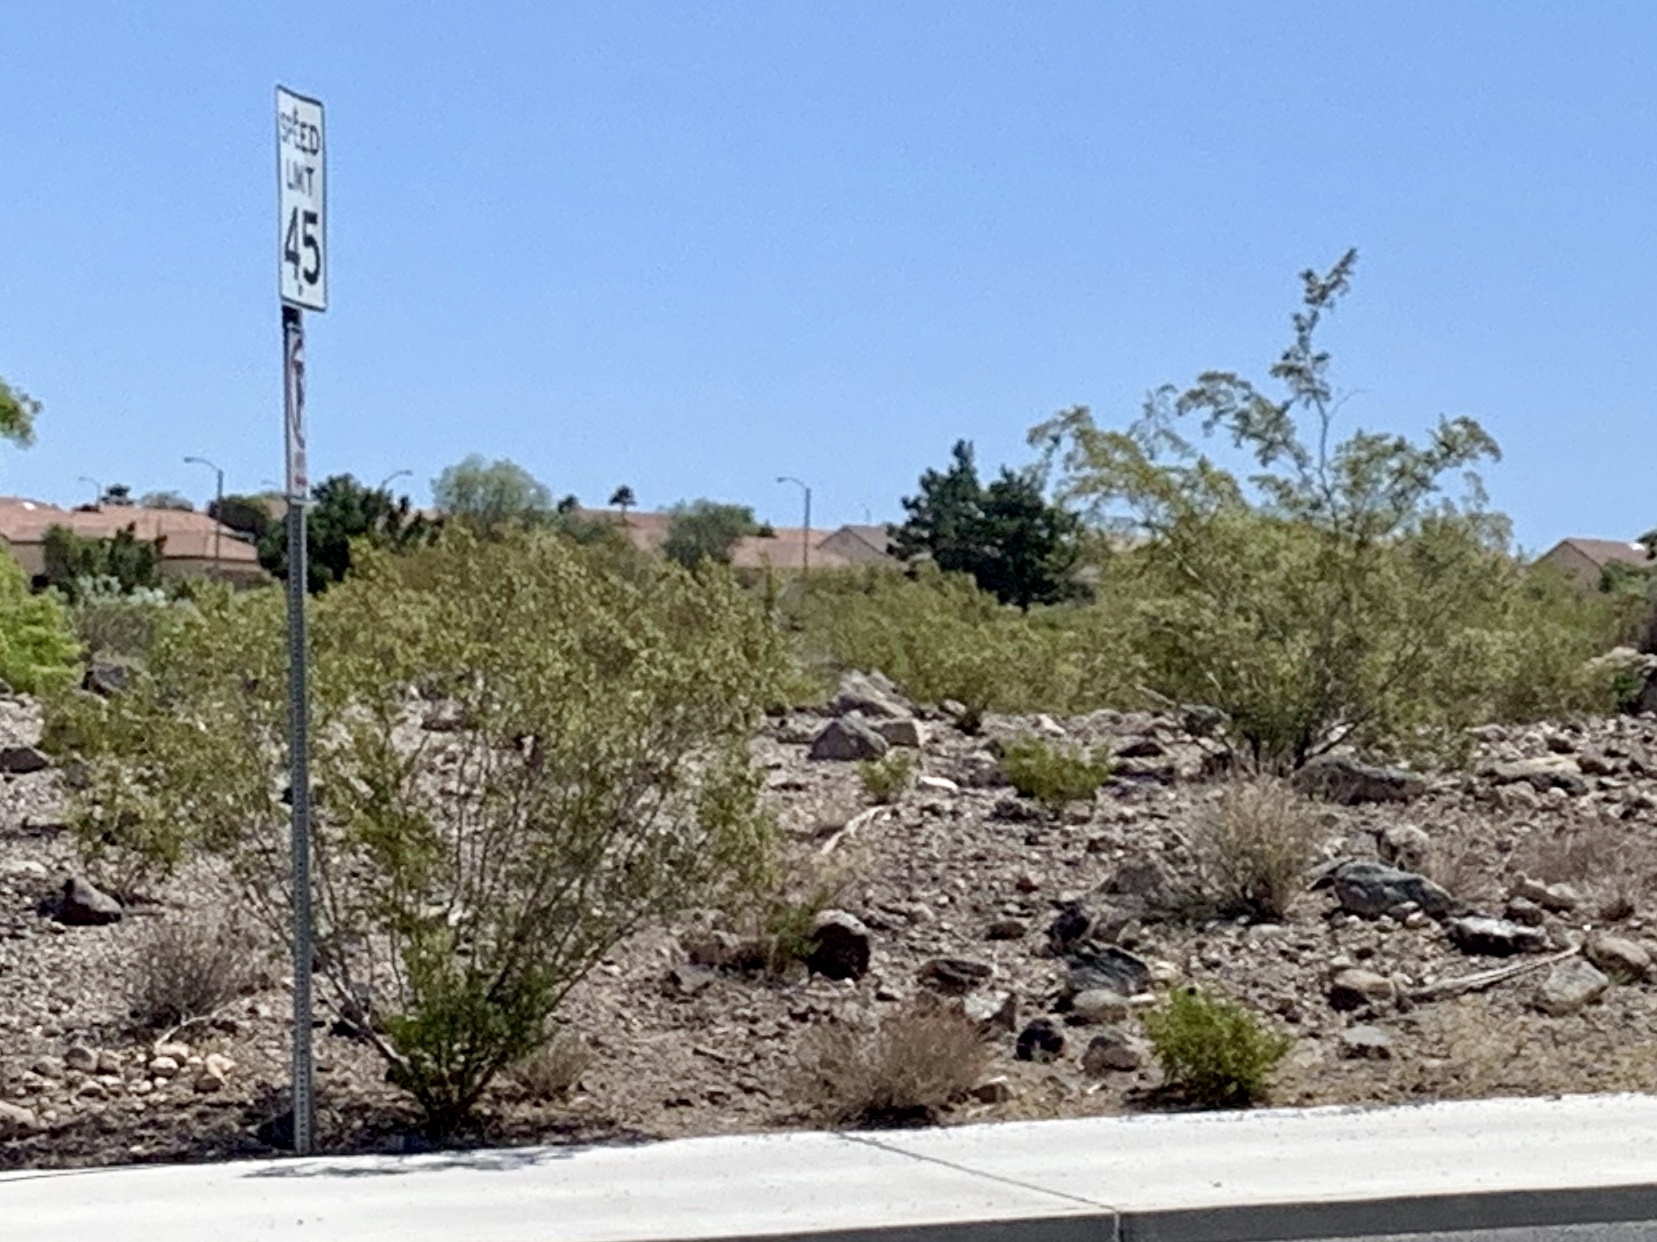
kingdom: Plantae
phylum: Tracheophyta
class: Magnoliopsida
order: Zygophyllales
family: Zygophyllaceae
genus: Larrea
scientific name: Larrea tridentata
